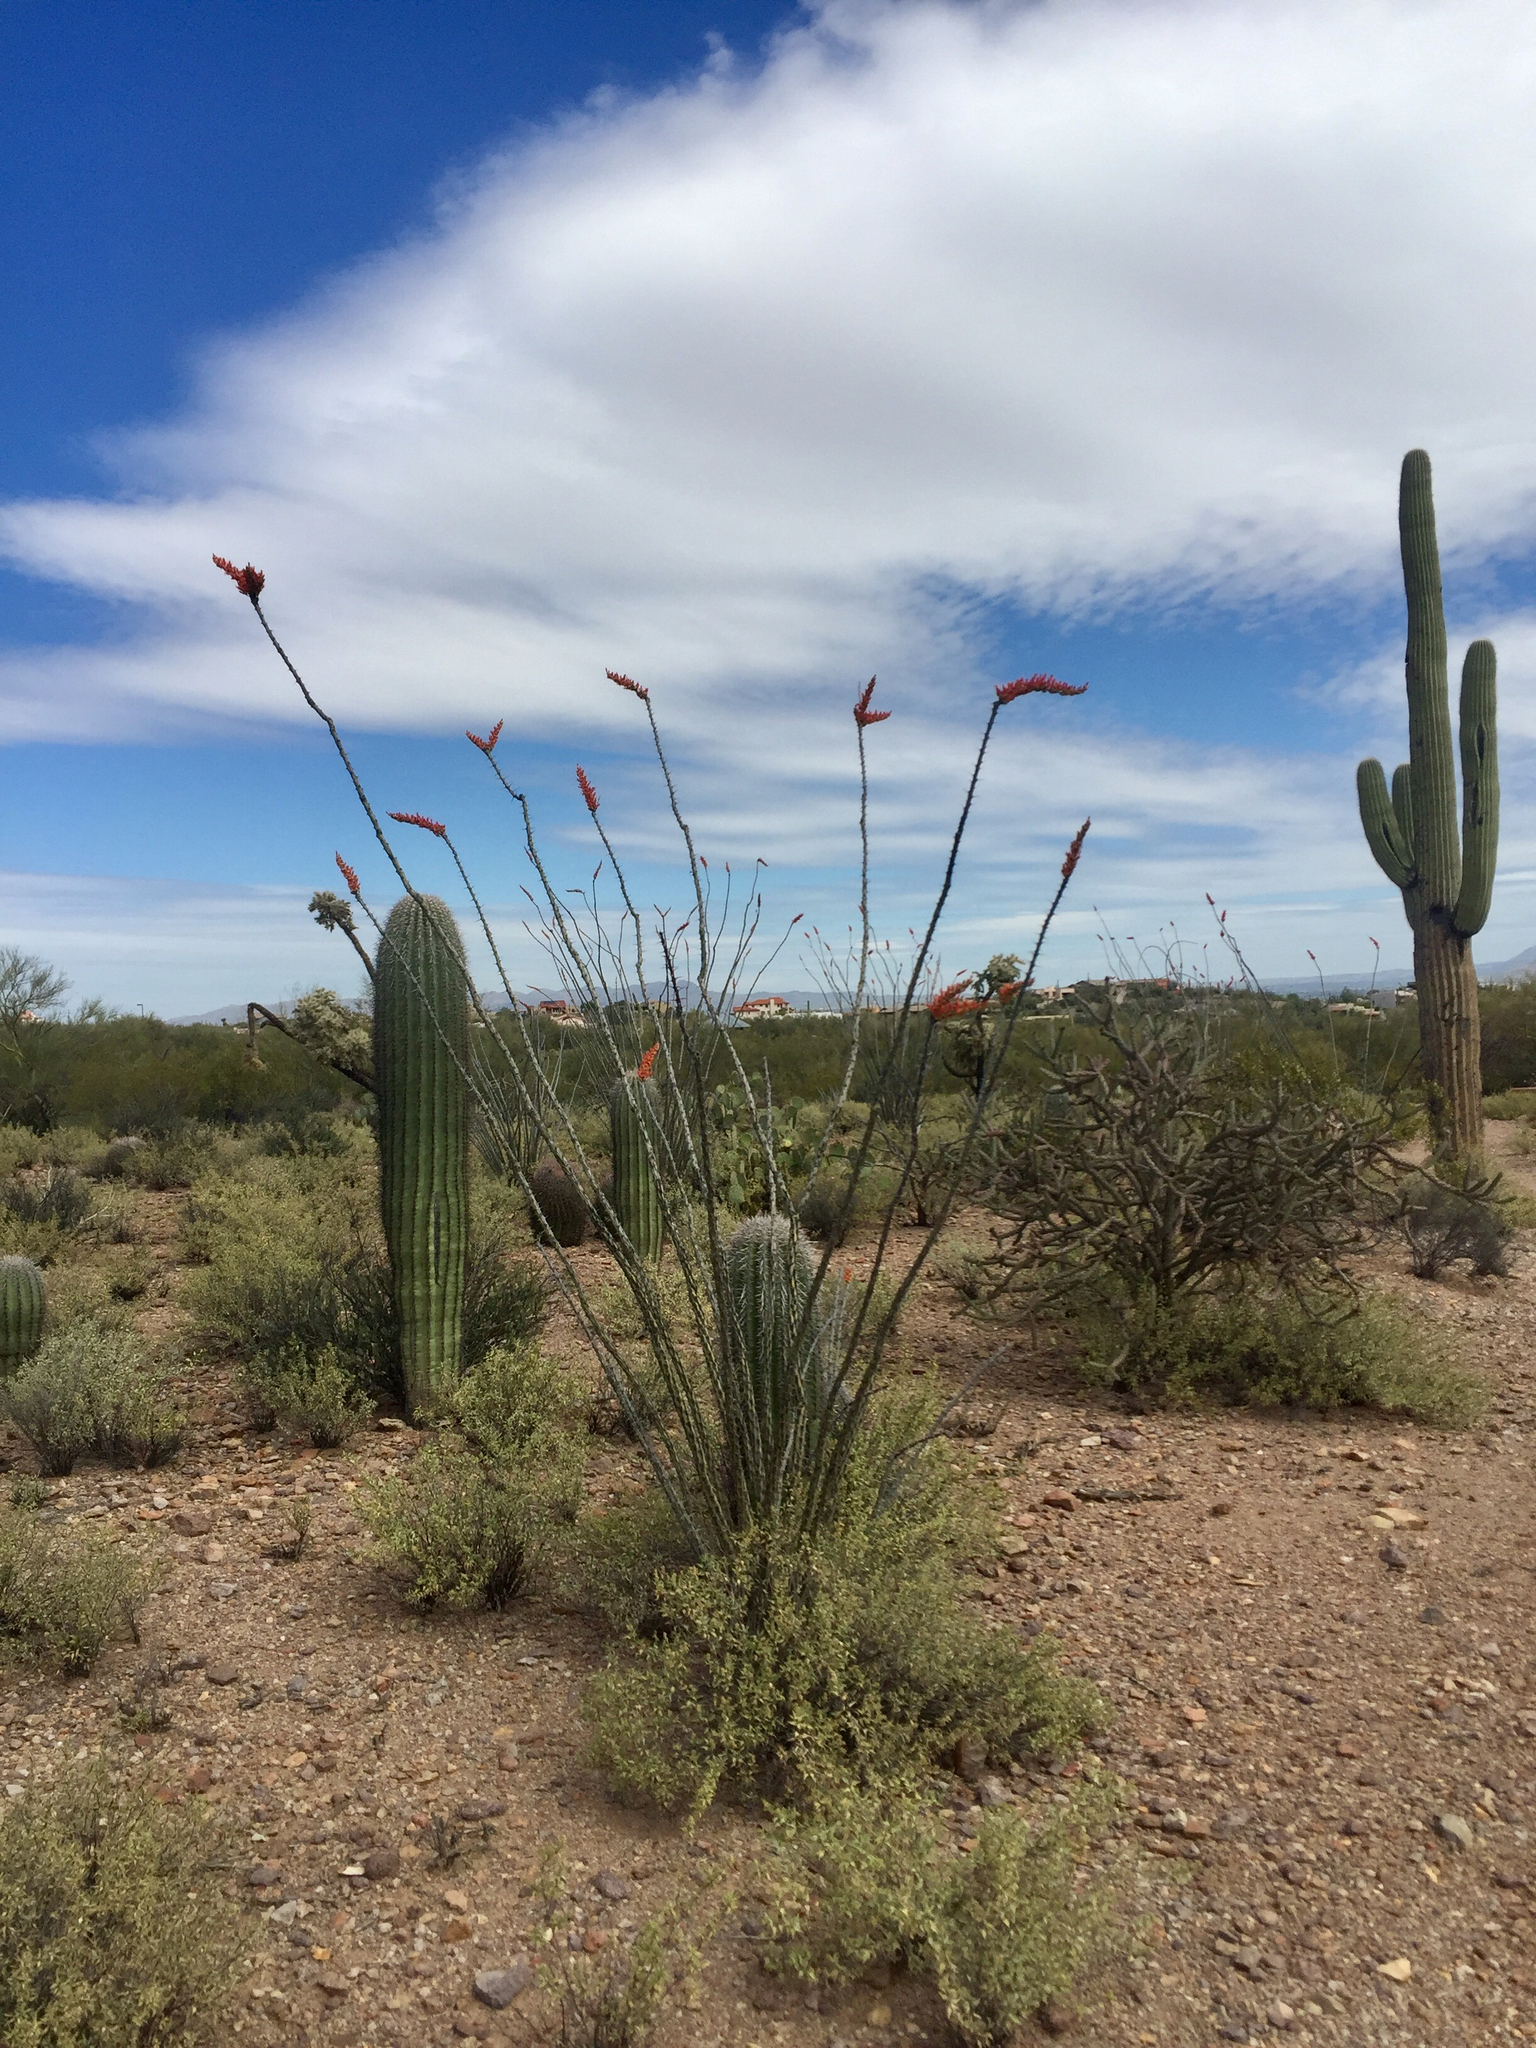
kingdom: Plantae
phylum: Tracheophyta
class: Magnoliopsida
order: Ericales
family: Fouquieriaceae
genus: Fouquieria
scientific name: Fouquieria splendens
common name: Vine-cactus
